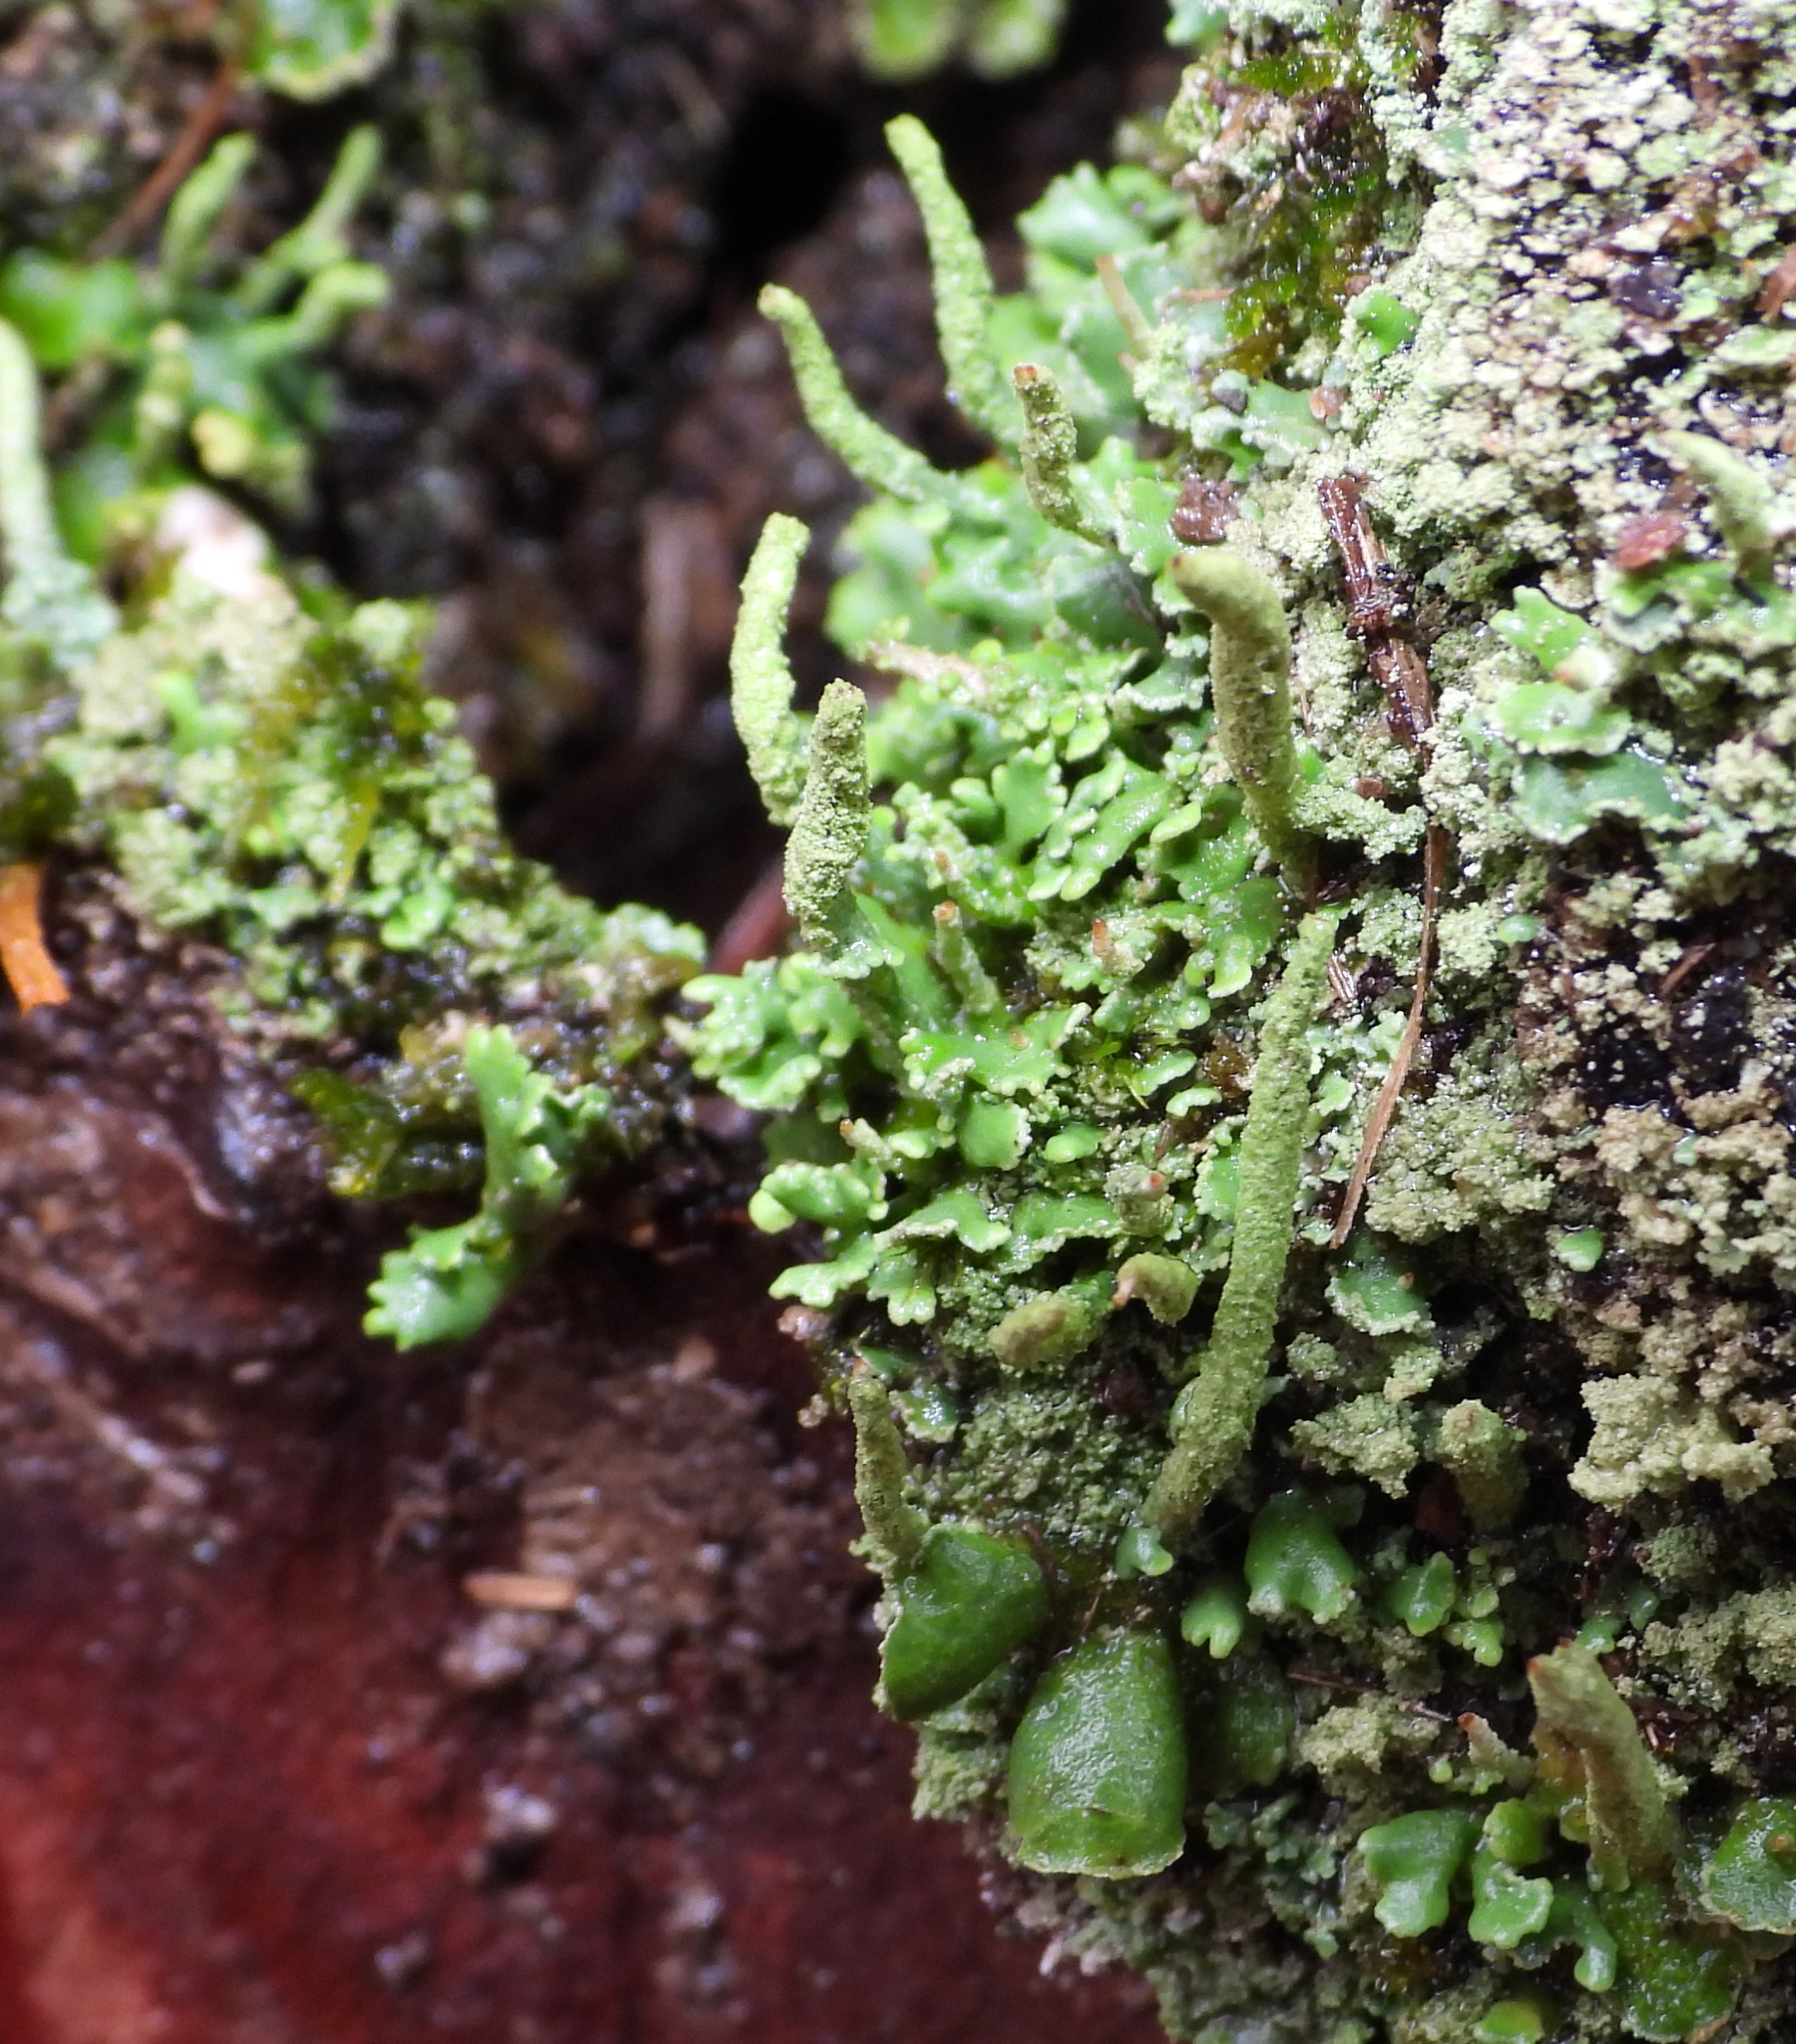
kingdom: Fungi
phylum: Ascomycota
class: Lecanoromycetes
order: Lecanorales
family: Cladoniaceae
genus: Cladonia
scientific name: Cladonia coniocraea
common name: Common powderhorn
